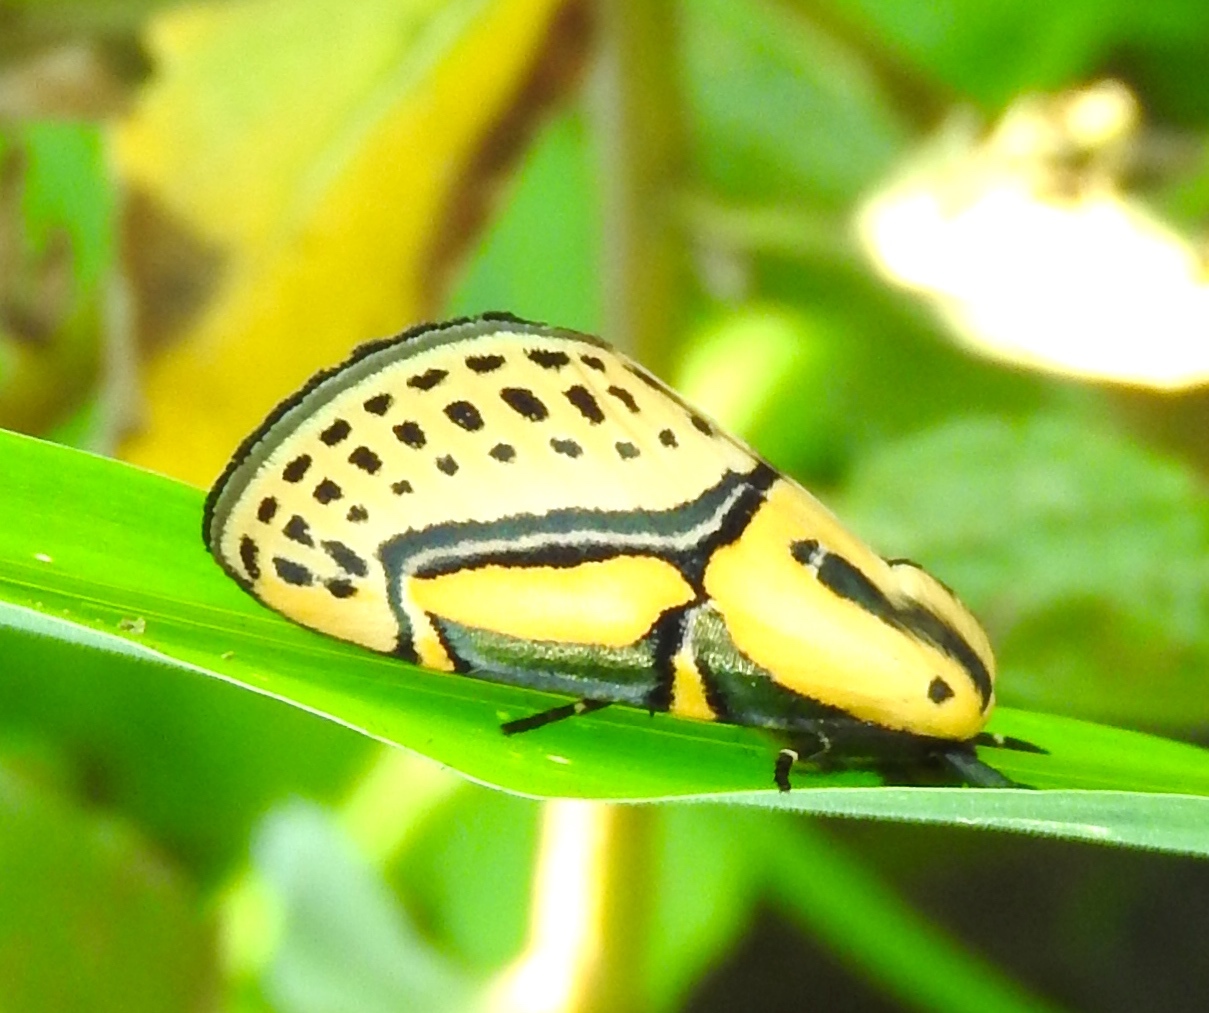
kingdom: Animalia
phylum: Arthropoda
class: Insecta
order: Lepidoptera
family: Erebidae
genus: Diphthera
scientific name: Diphthera festiva
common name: Hieroglyphic moth
